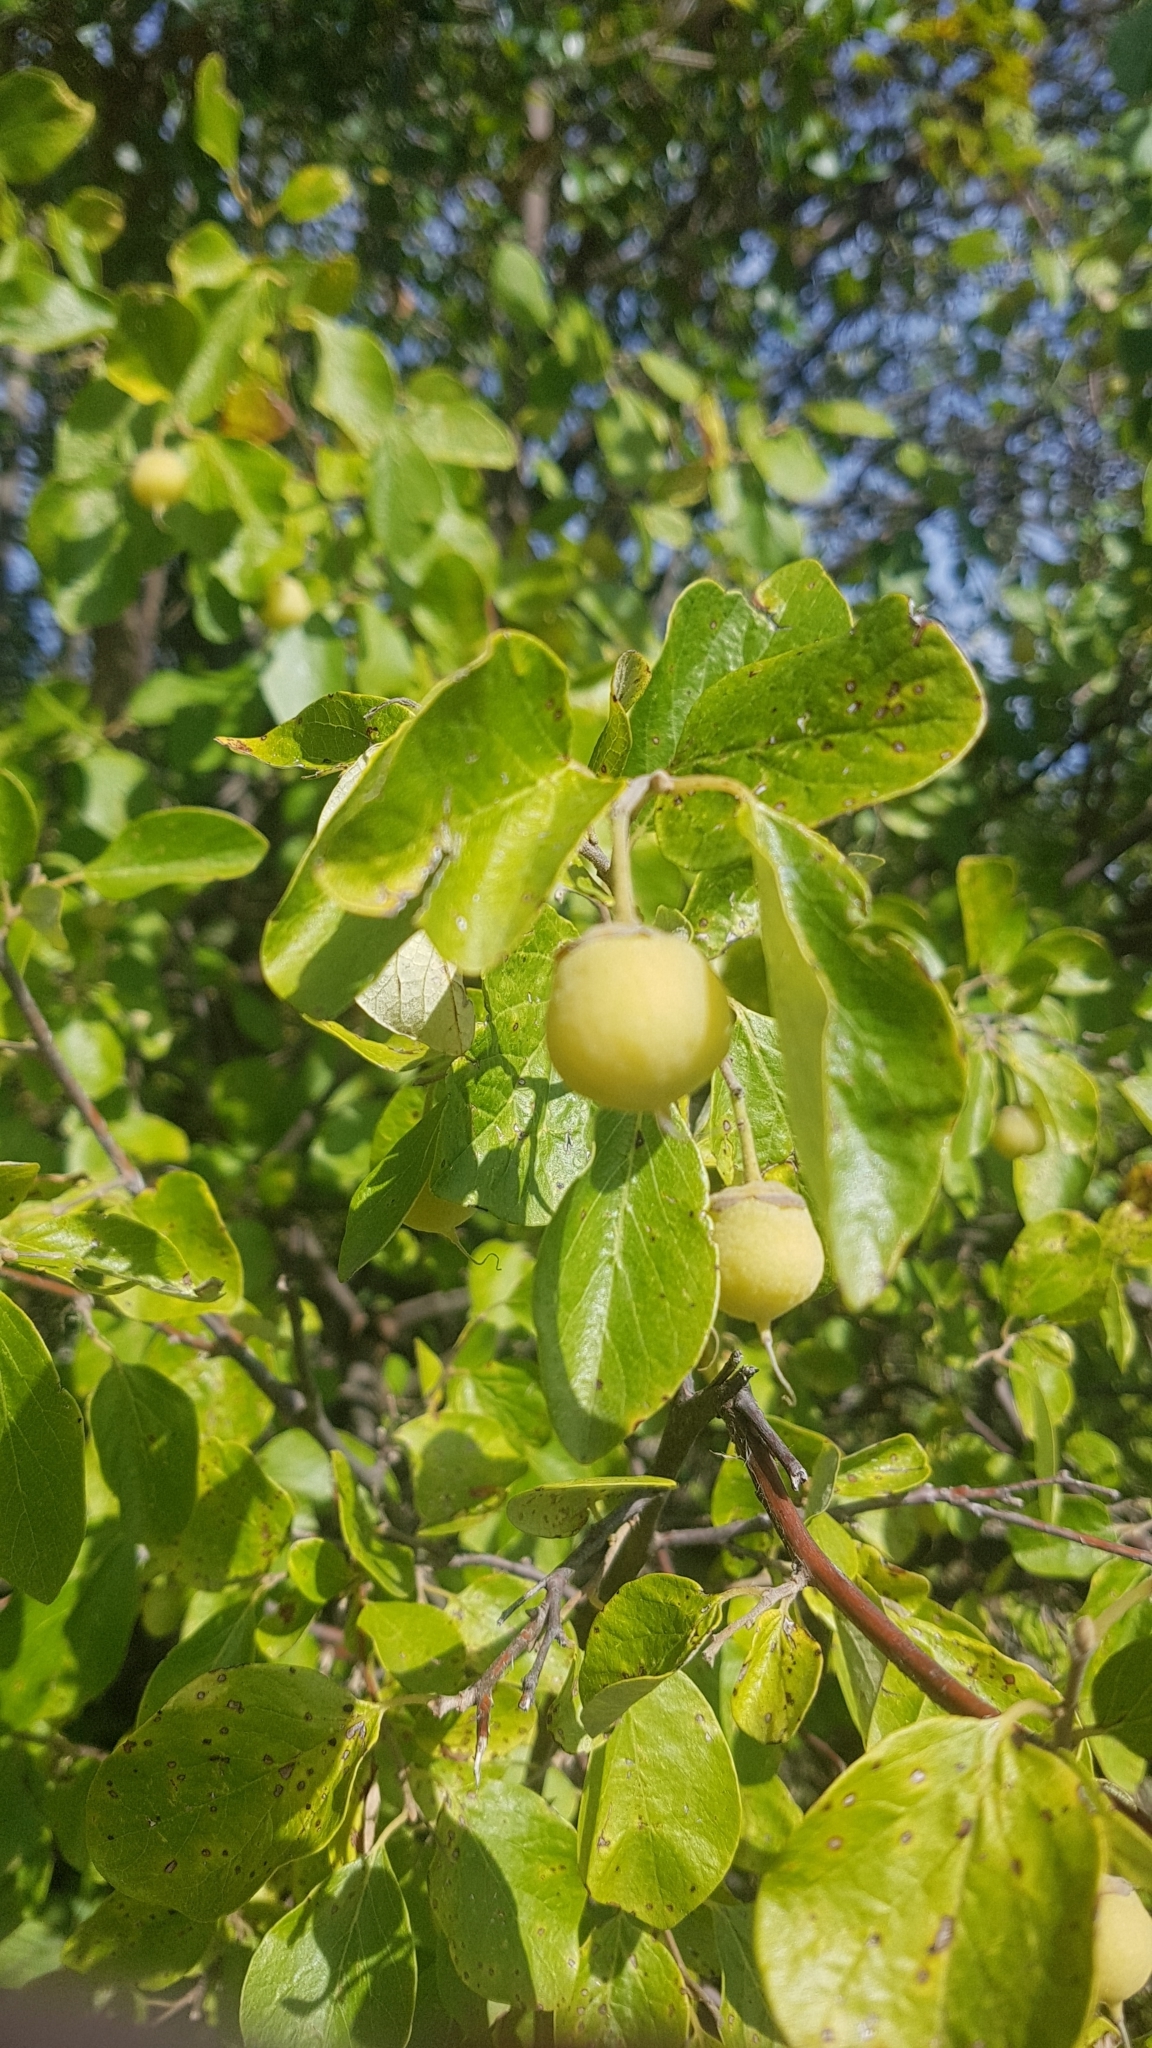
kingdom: Plantae
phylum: Tracheophyta
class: Magnoliopsida
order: Ericales
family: Styracaceae
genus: Styrax
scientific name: Styrax officinalis
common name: Storax
